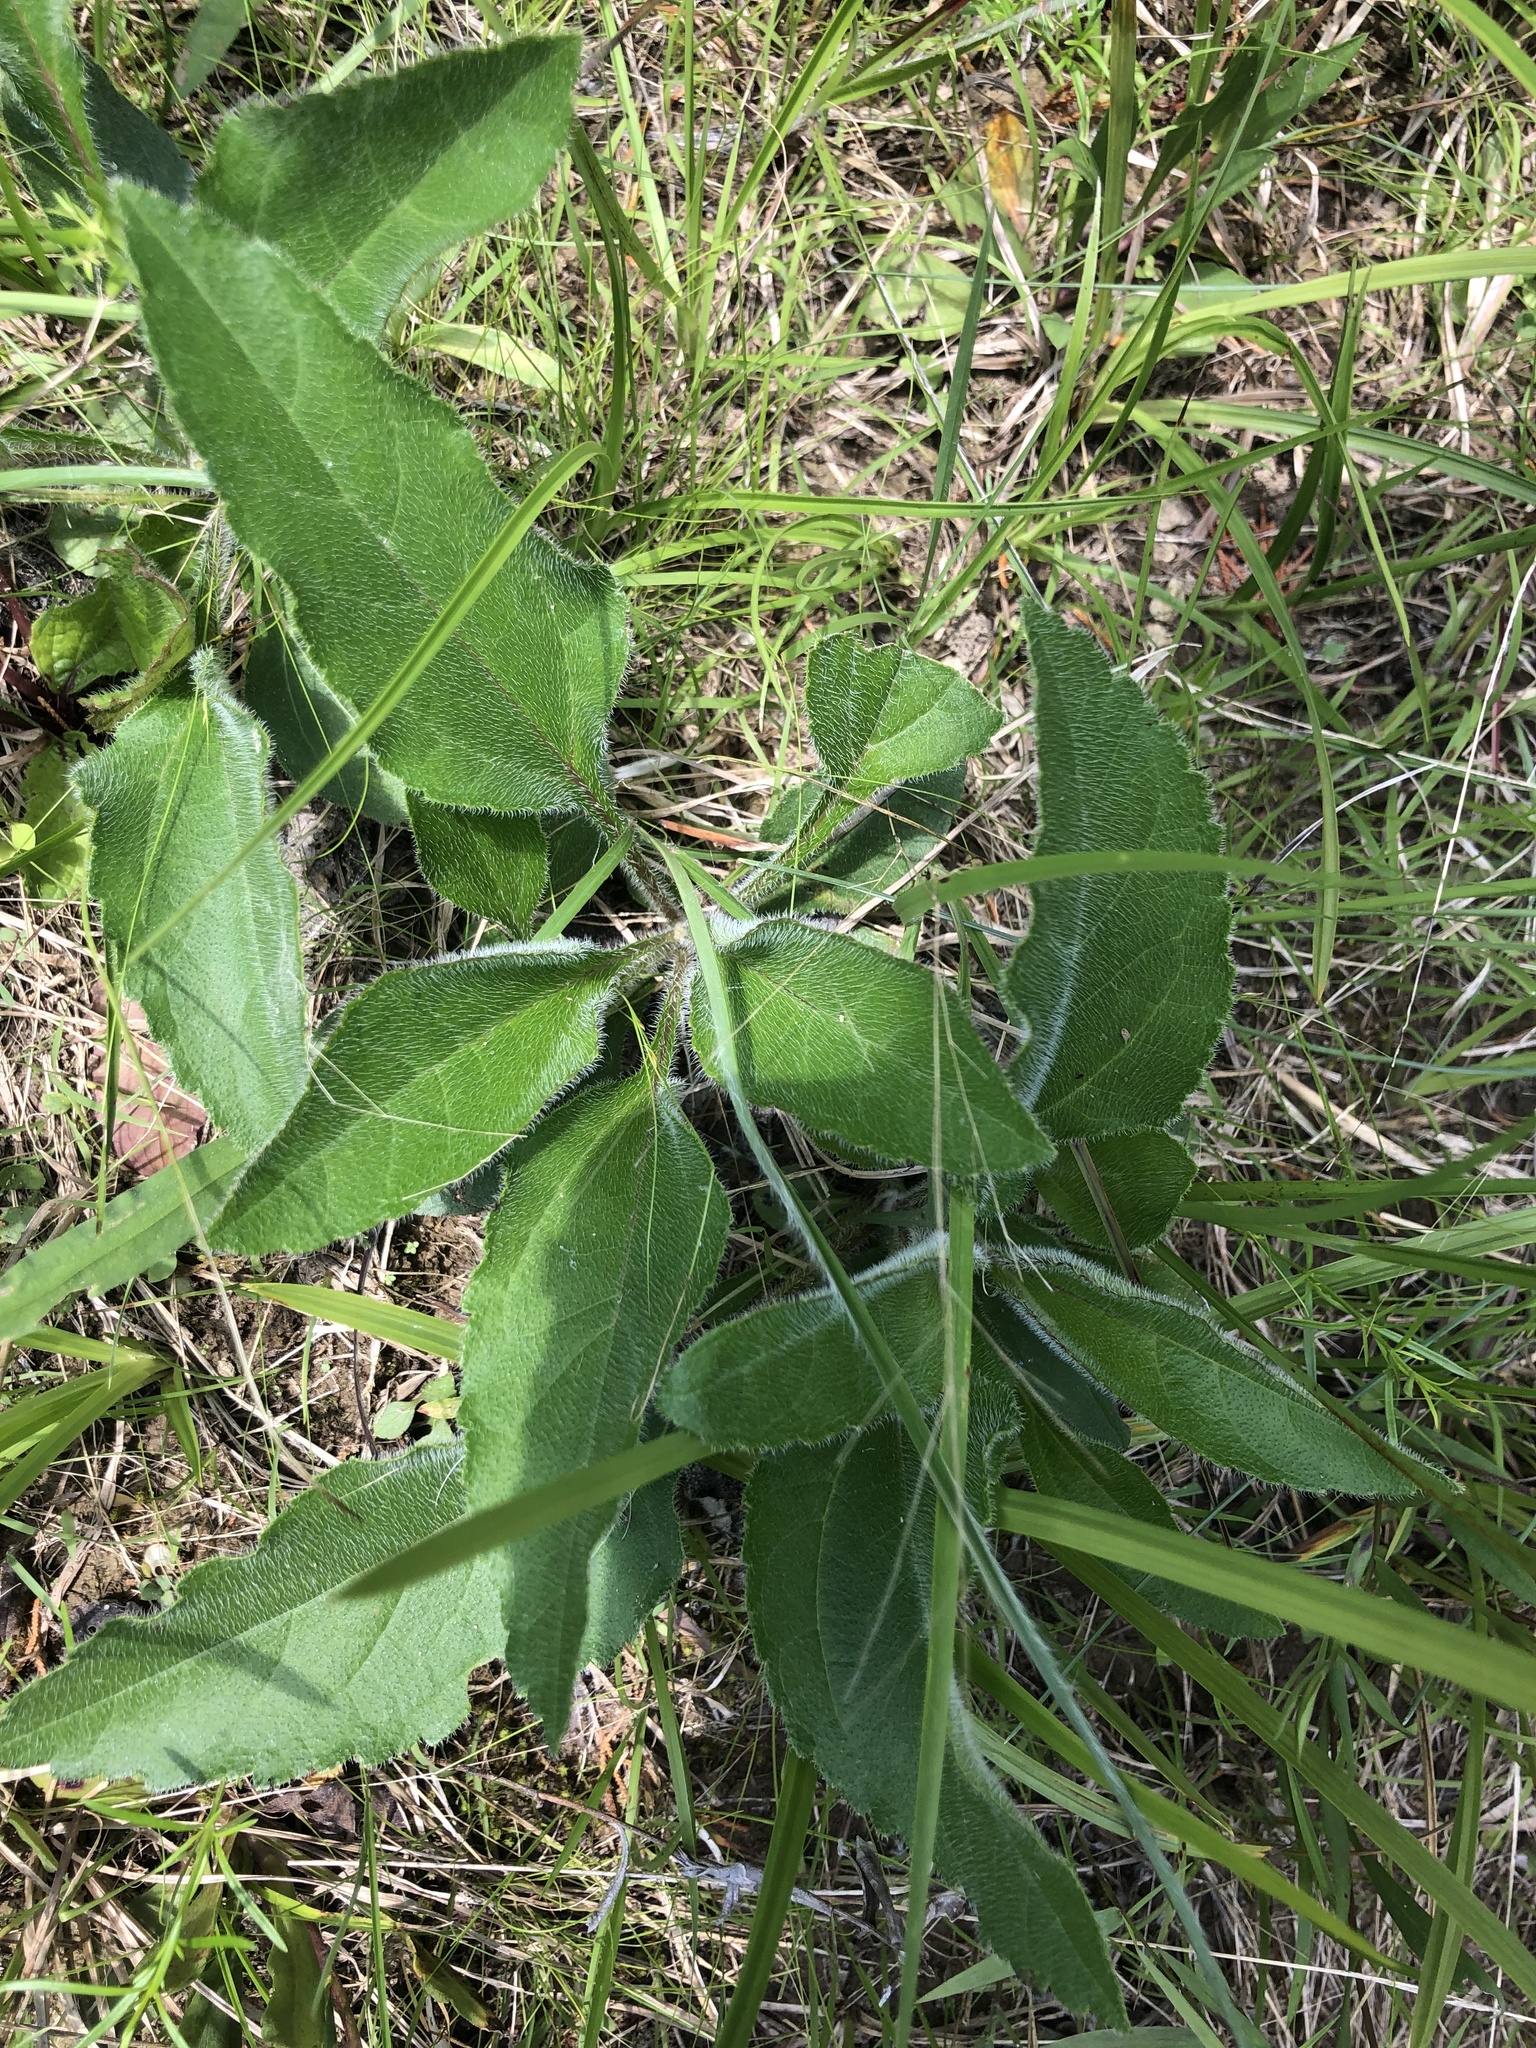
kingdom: Plantae
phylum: Tracheophyta
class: Magnoliopsida
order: Asterales
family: Asteraceae
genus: Helianthus
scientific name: Helianthus atrorubens
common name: Dark-eyed sunflower
